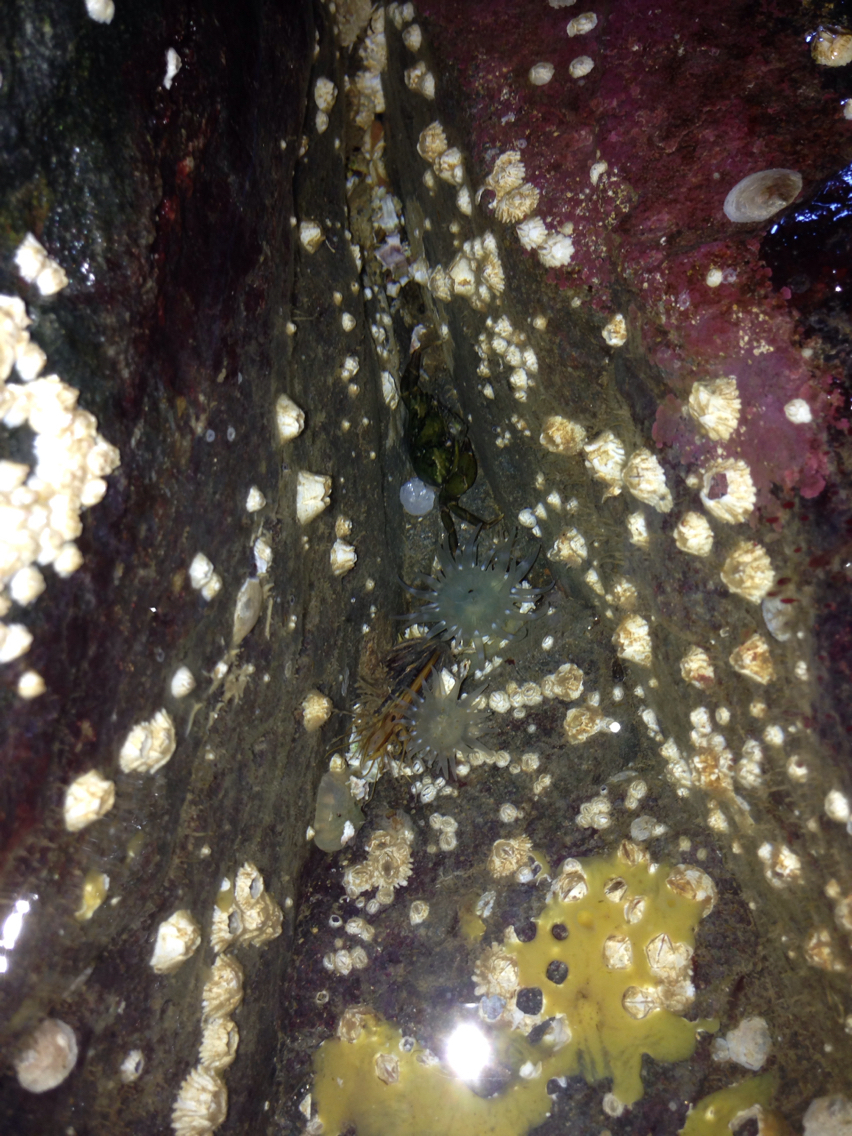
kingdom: Animalia
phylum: Cnidaria
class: Anthozoa
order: Actiniaria
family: Actiniidae
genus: Aulactinia
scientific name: Aulactinia stella
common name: Silver-spotted sea anemone
